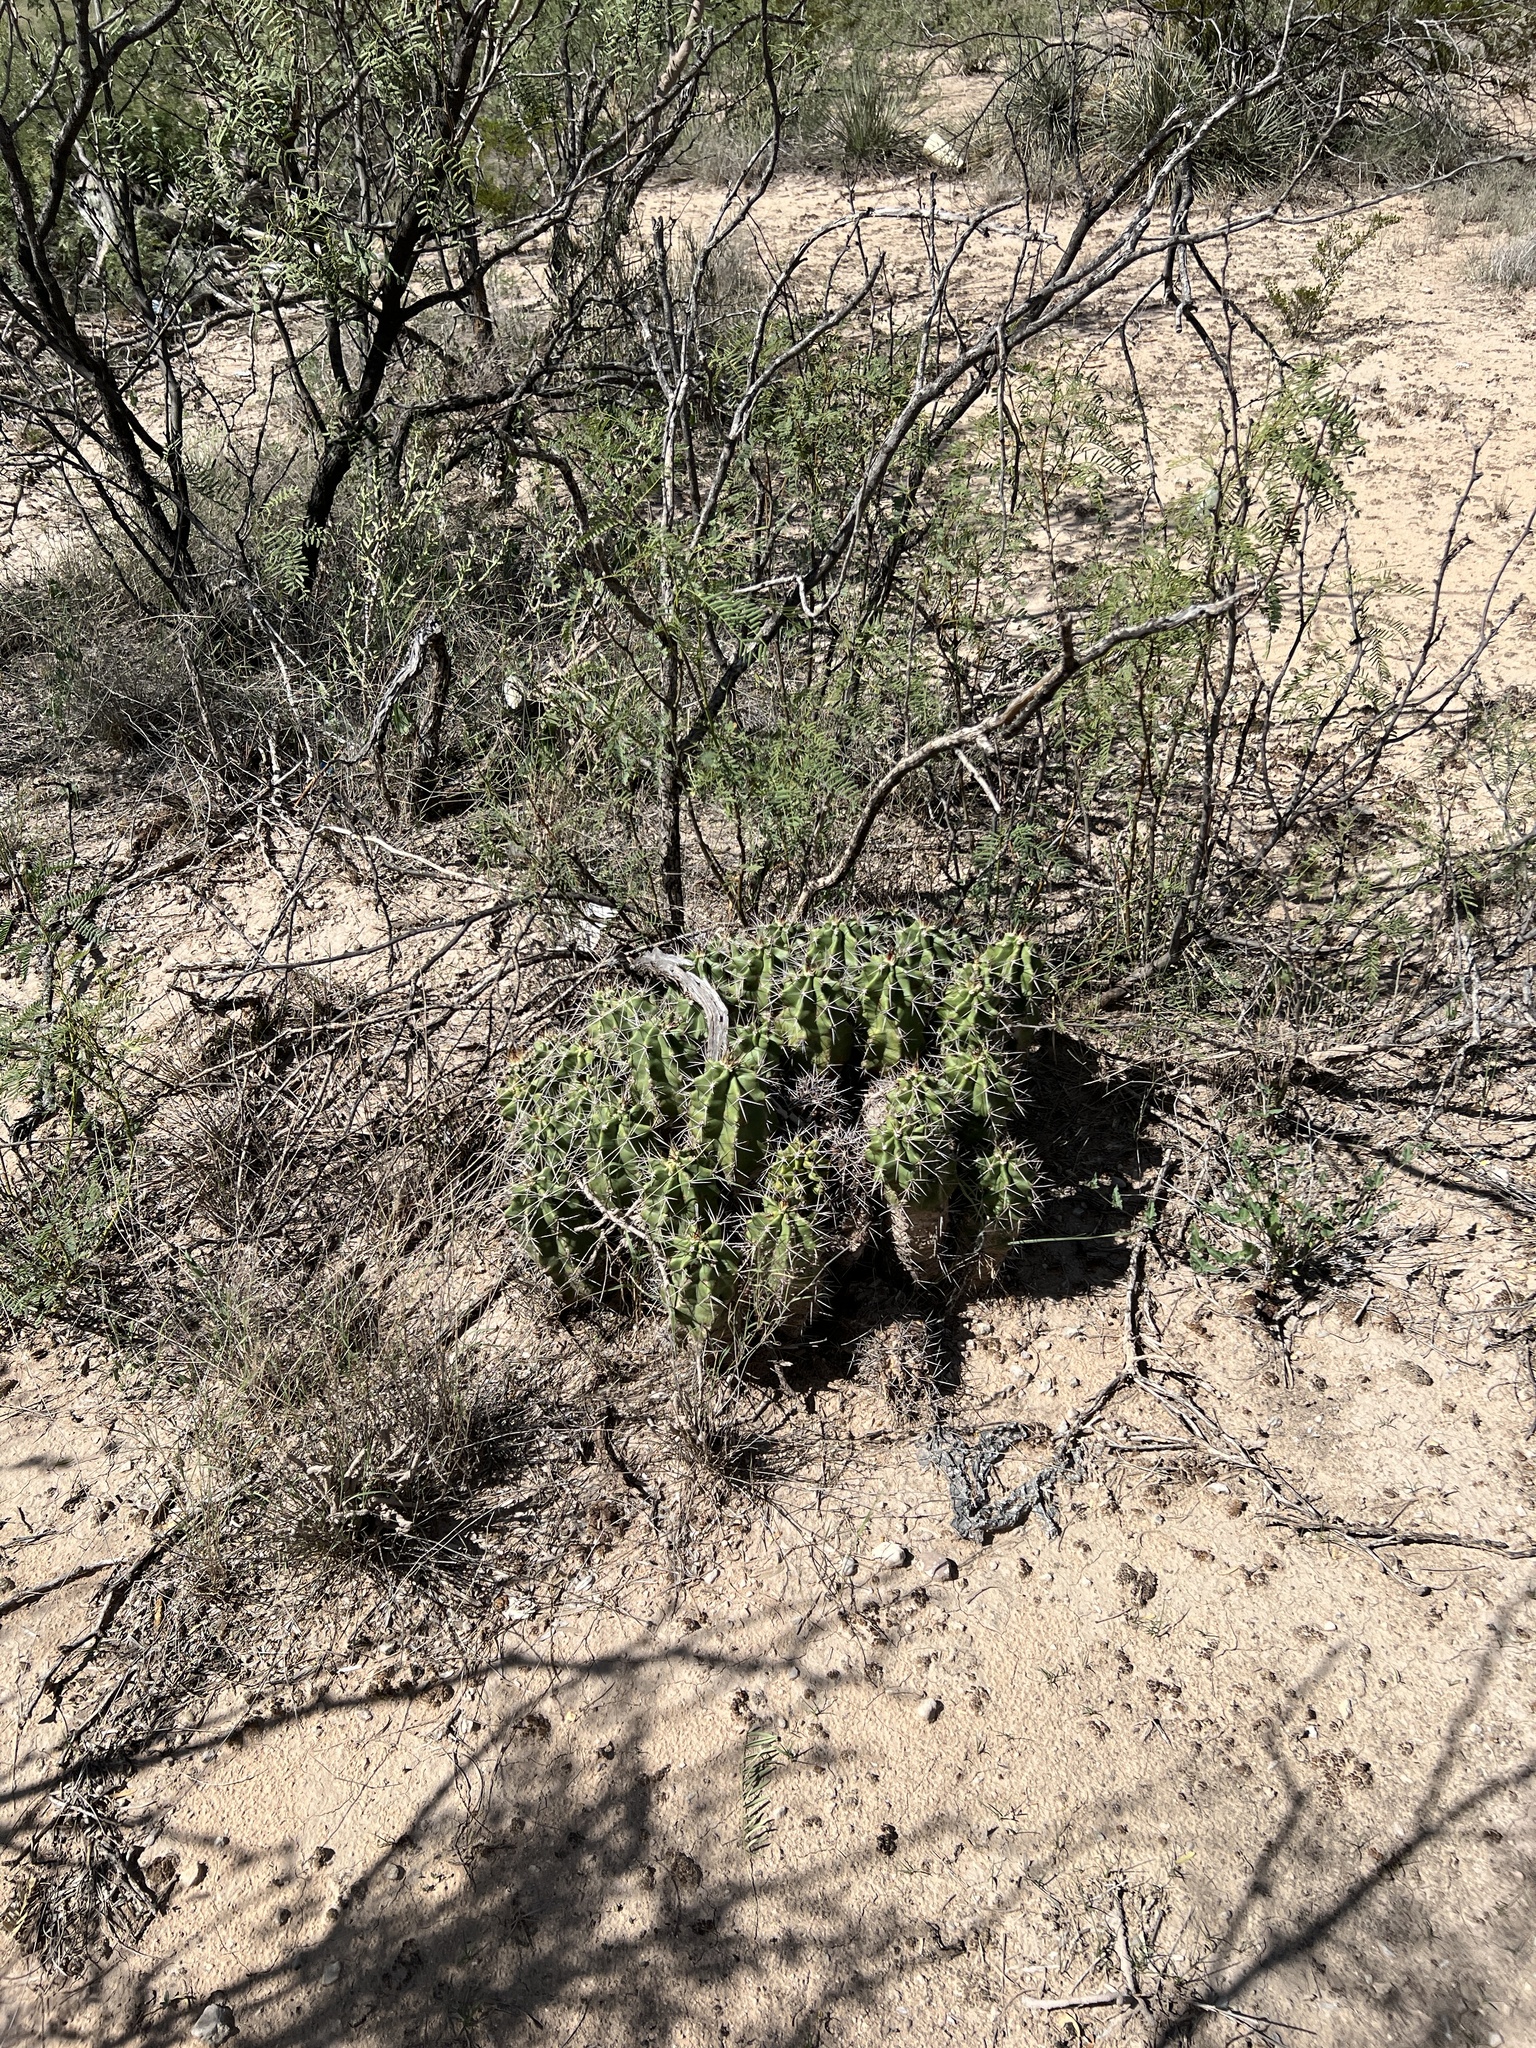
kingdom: Plantae
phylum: Tracheophyta
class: Magnoliopsida
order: Caryophyllales
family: Cactaceae
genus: Echinocereus
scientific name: Echinocereus coccineus
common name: Scarlet hedgehog cactus
